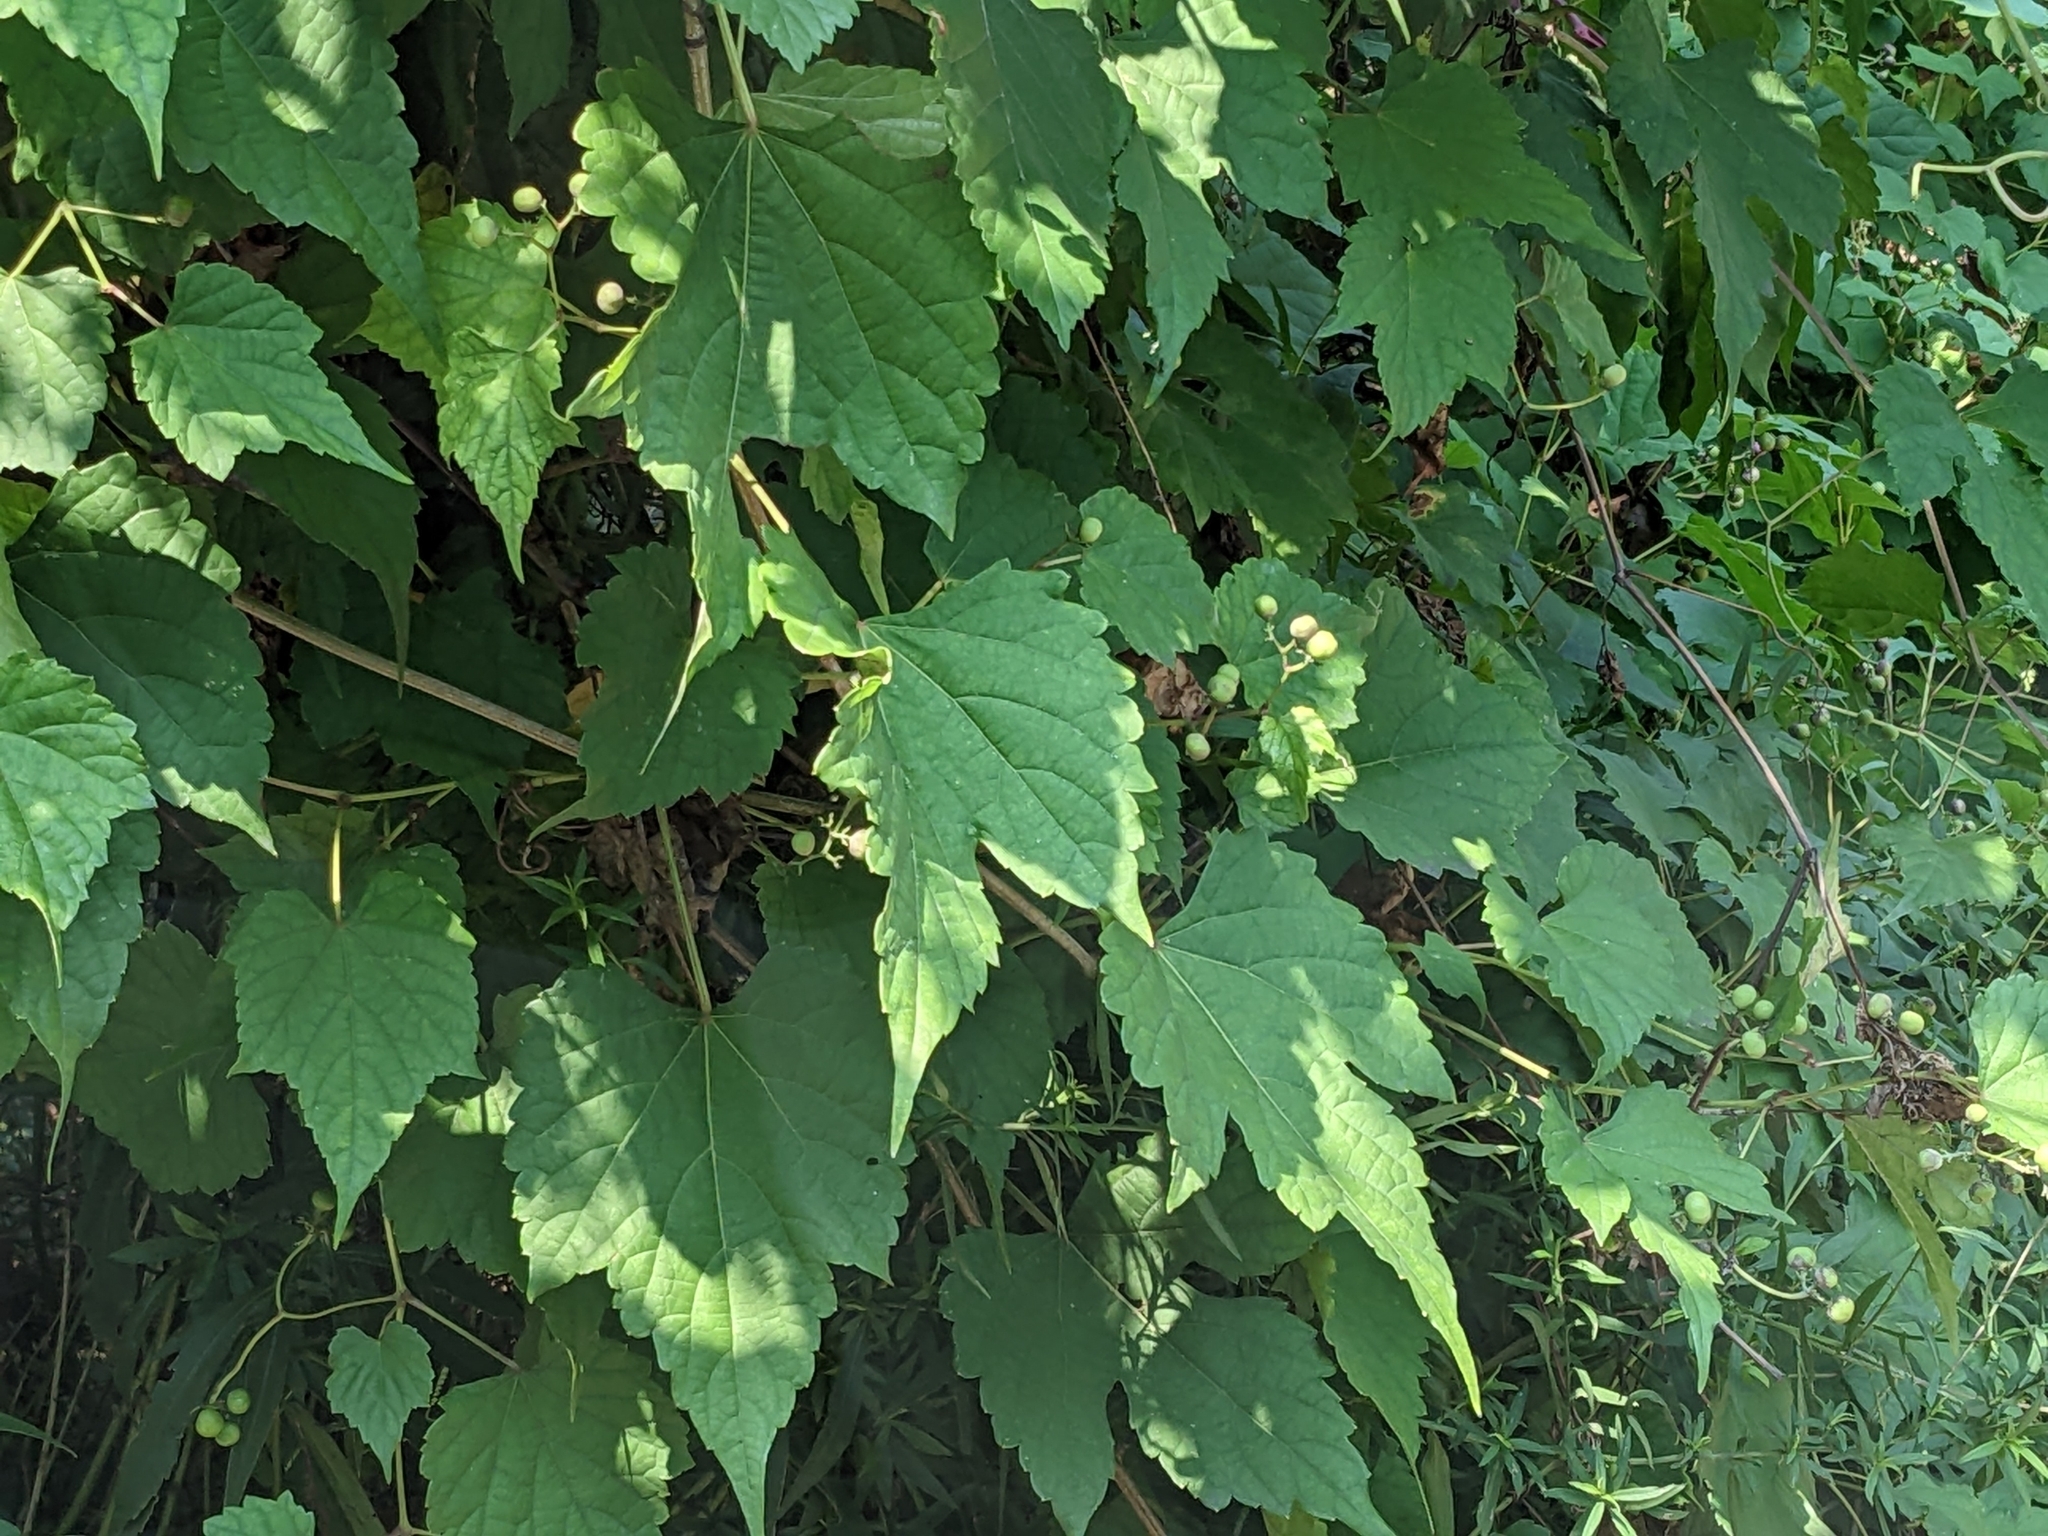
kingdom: Plantae
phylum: Tracheophyta
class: Magnoliopsida
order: Vitales
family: Vitaceae
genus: Ampelopsis
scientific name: Ampelopsis glandulosa
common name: Amur peppervine
